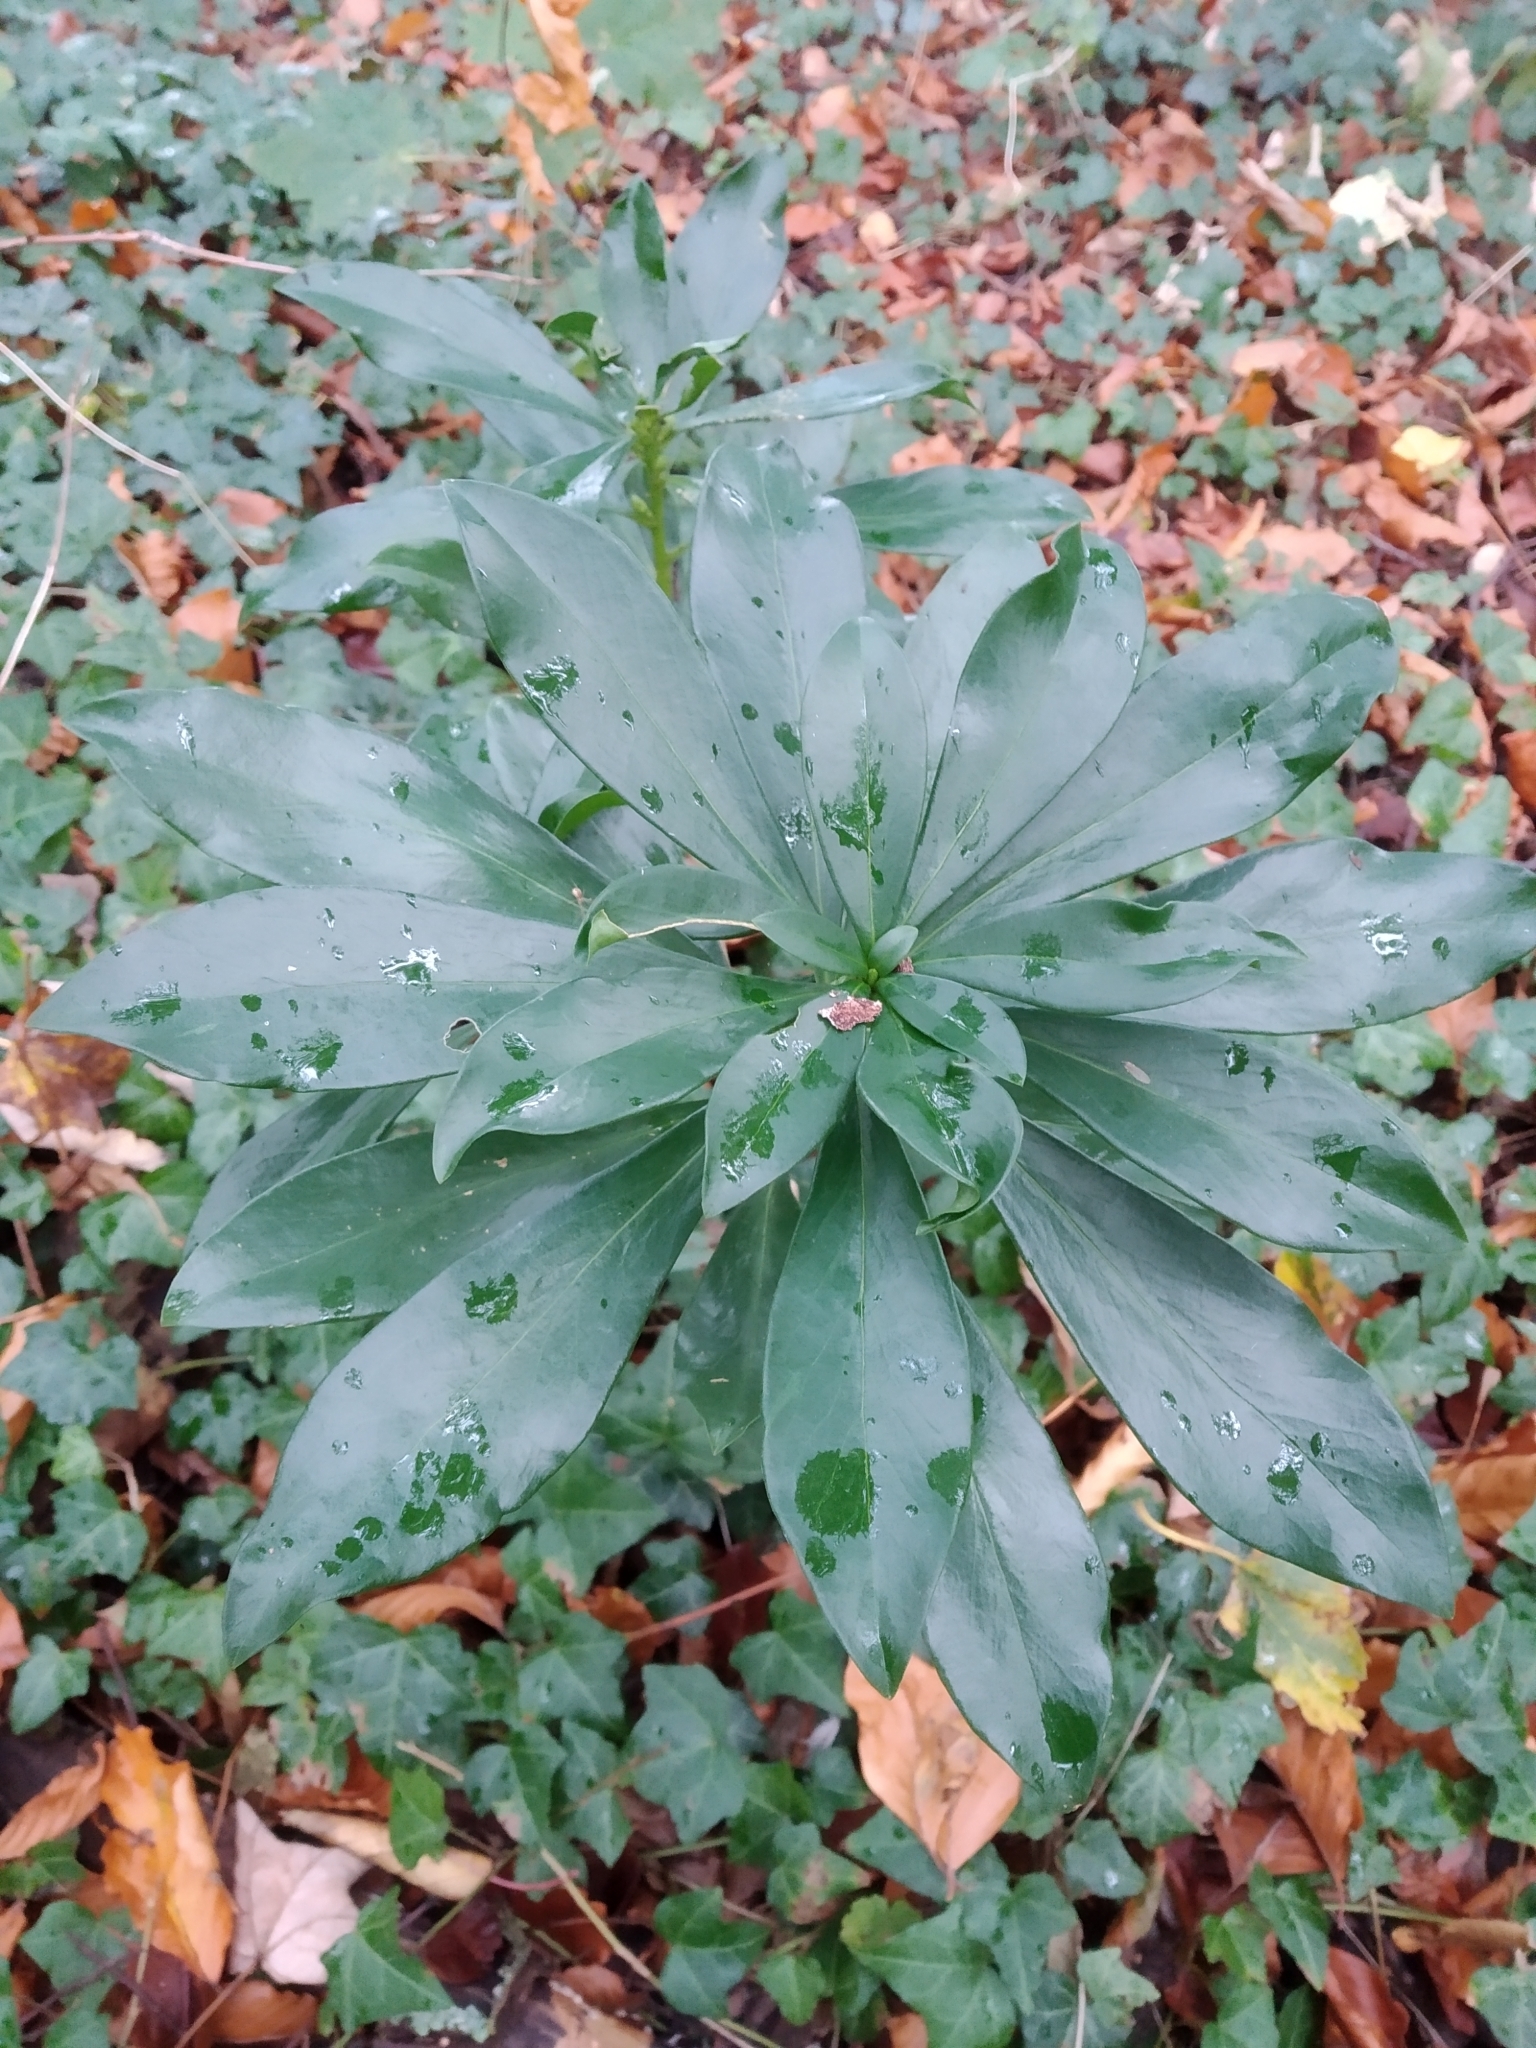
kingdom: Plantae
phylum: Tracheophyta
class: Magnoliopsida
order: Malvales
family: Thymelaeaceae
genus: Daphne
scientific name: Daphne laureola
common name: Spurge-laurel
